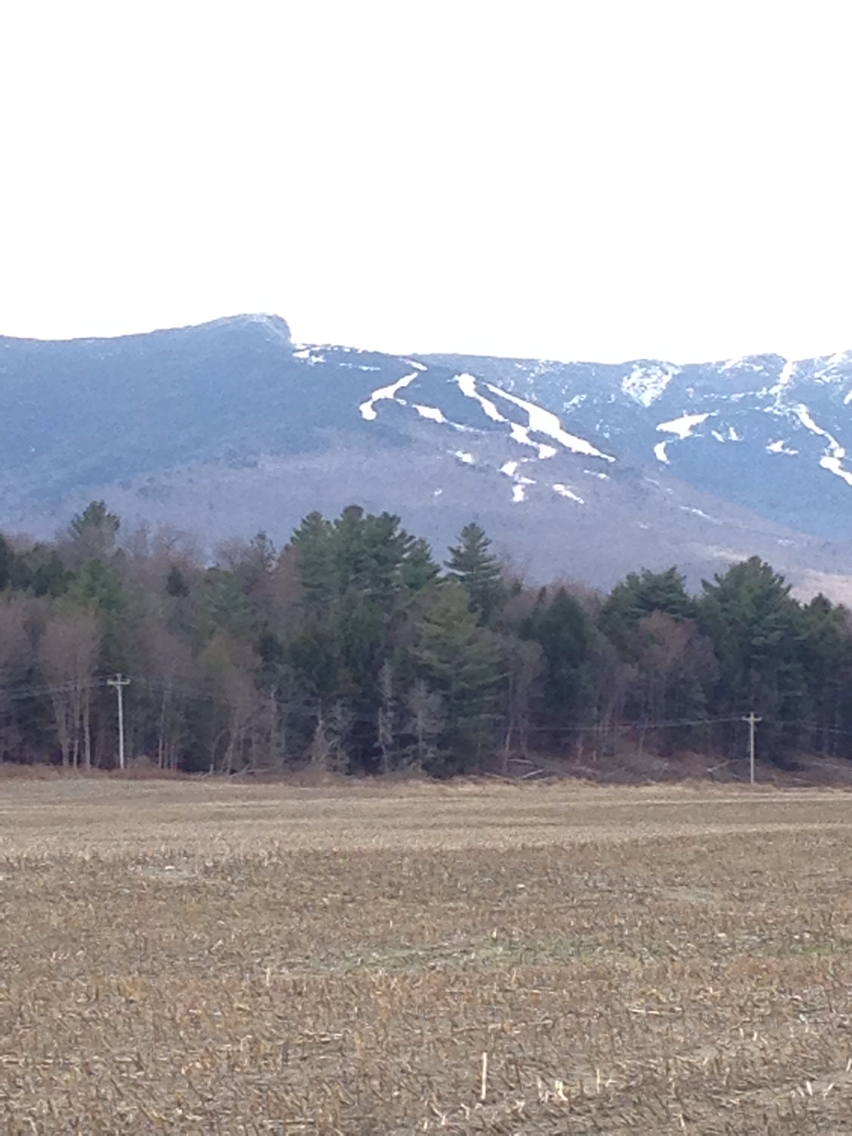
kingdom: Plantae
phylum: Tracheophyta
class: Pinopsida
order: Pinales
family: Pinaceae
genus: Pinus
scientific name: Pinus strobus
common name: Weymouth pine
